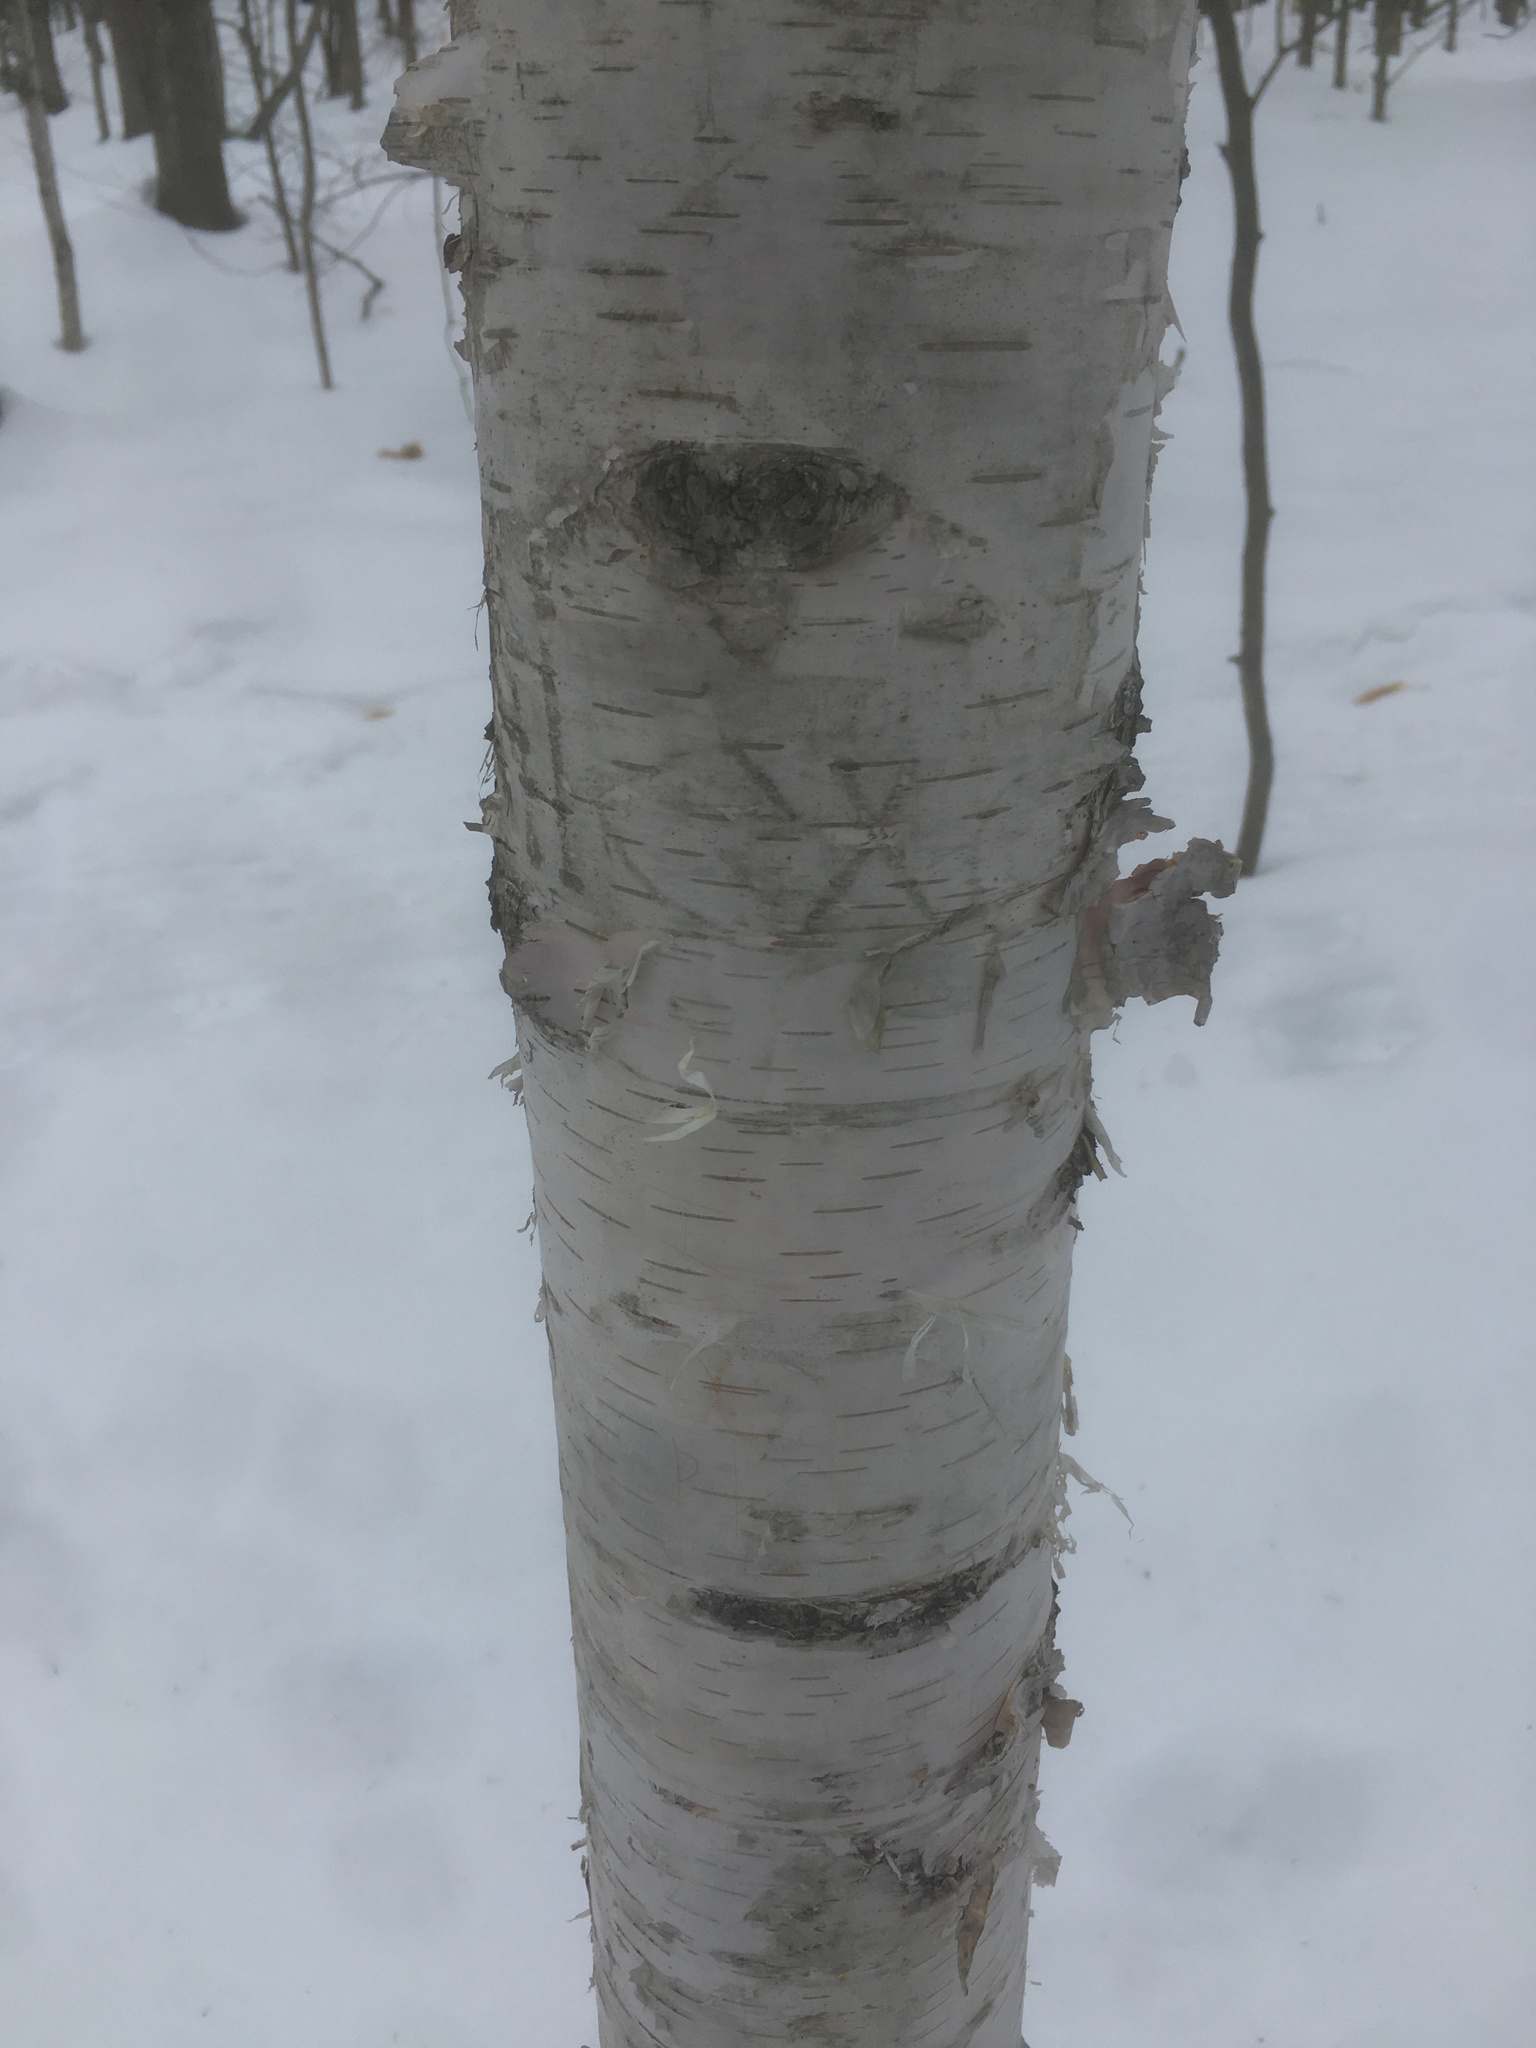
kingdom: Plantae
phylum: Tracheophyta
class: Magnoliopsida
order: Fagales
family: Betulaceae
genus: Betula
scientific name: Betula papyrifera
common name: Paper birch
